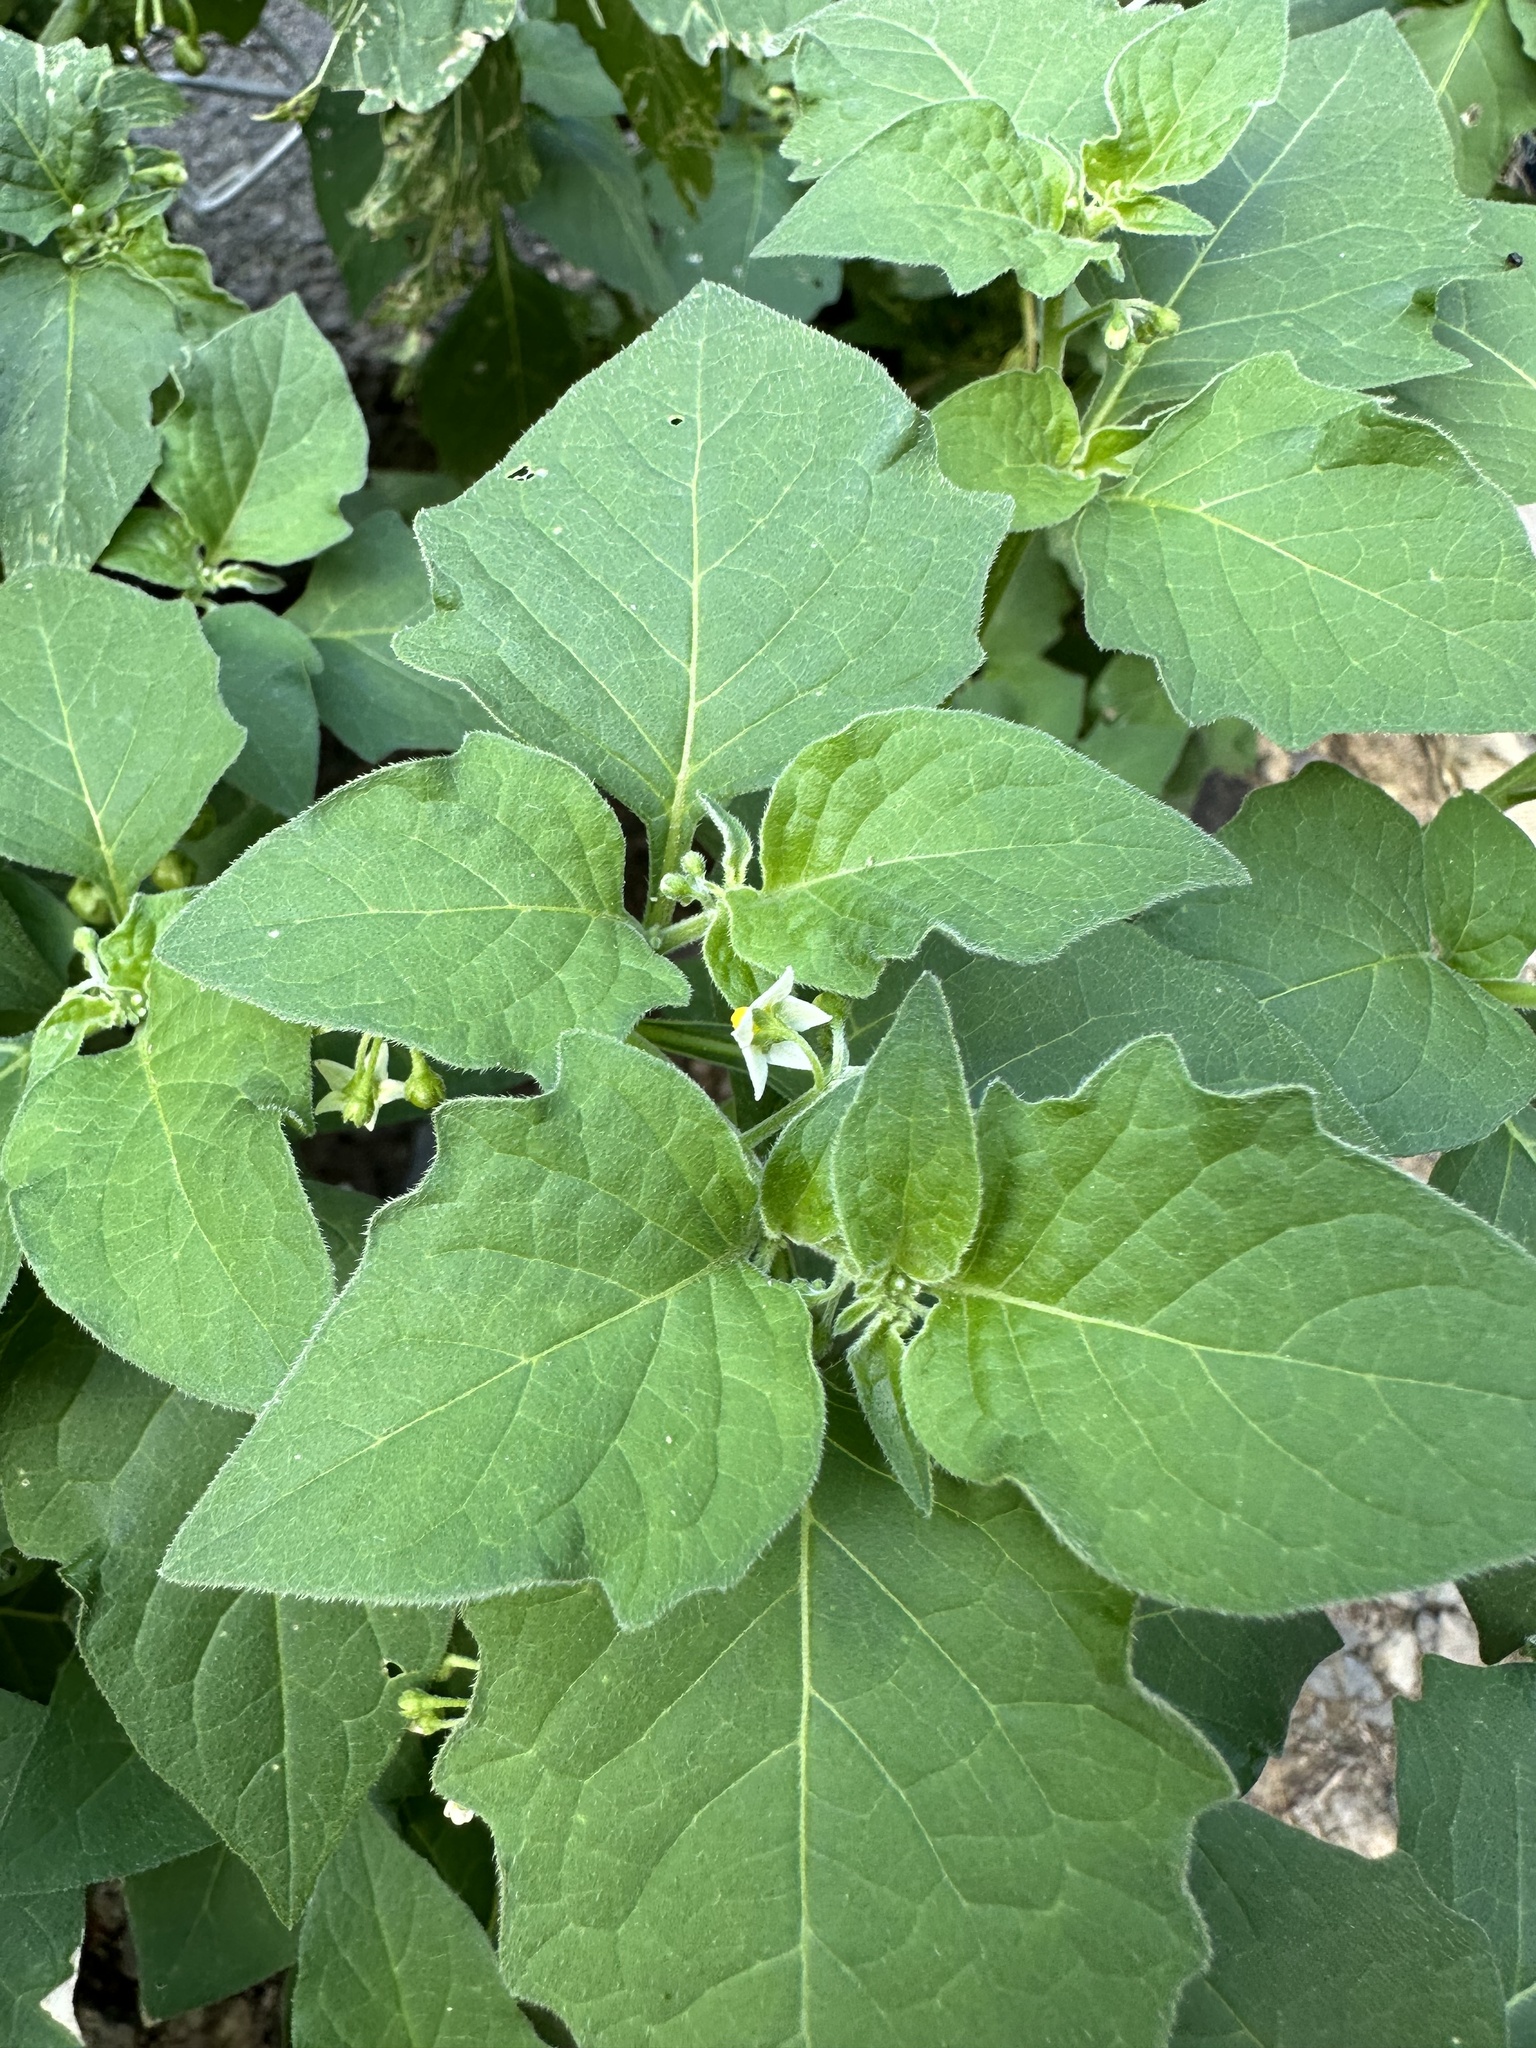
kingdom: Plantae
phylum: Tracheophyta
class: Magnoliopsida
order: Solanales
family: Solanaceae
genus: Solanum
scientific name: Solanum nigrum
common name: Black nightshade
